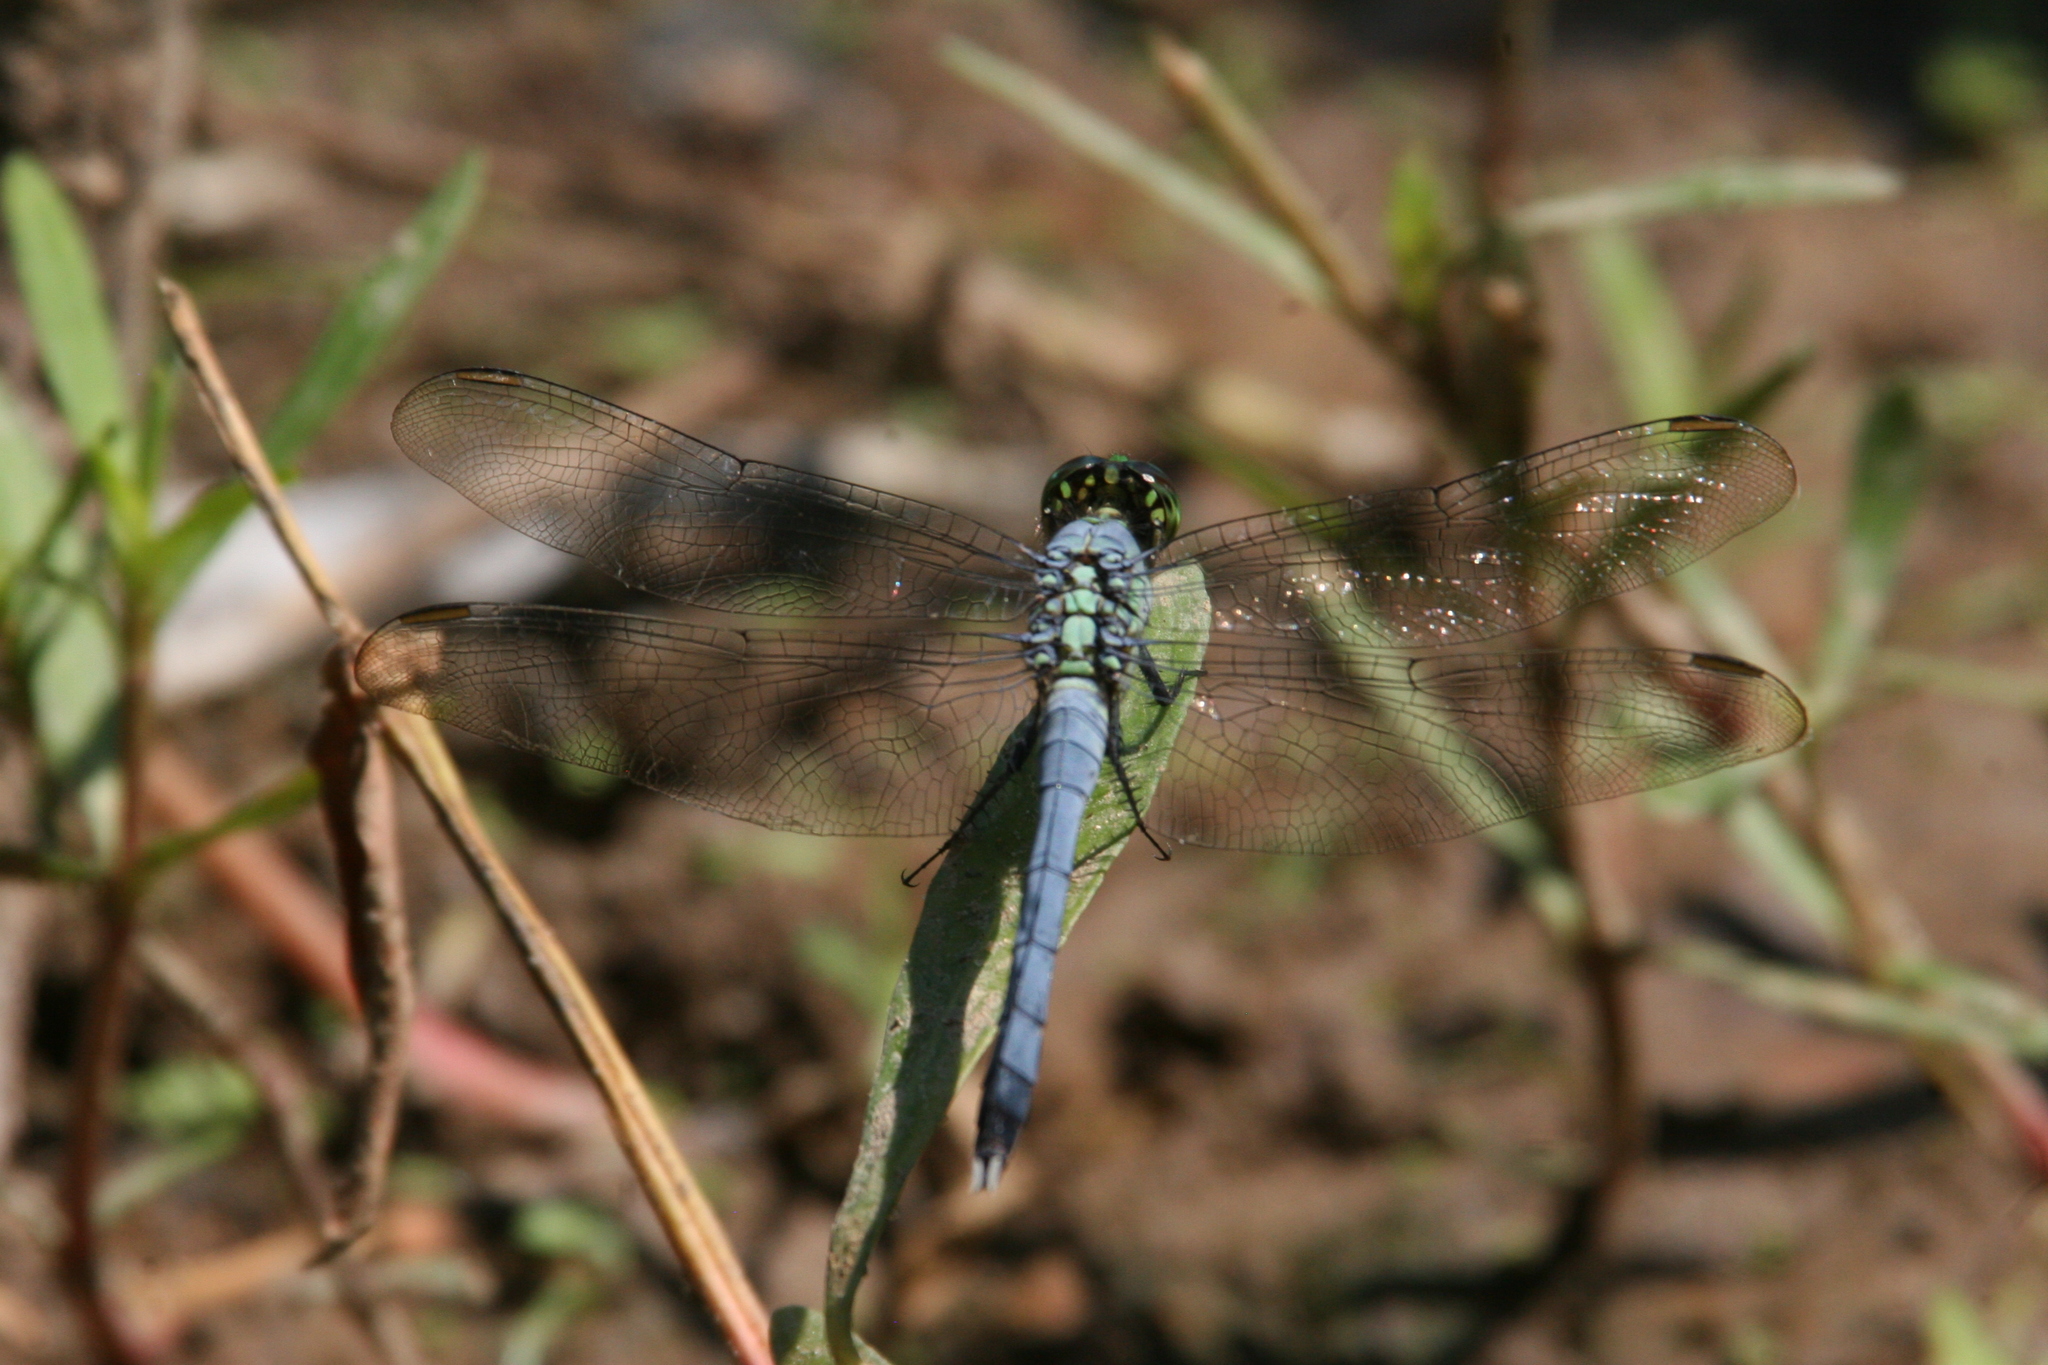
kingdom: Animalia
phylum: Arthropoda
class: Insecta
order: Odonata
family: Libellulidae
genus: Erythemis
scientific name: Erythemis simplicicollis
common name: Eastern pondhawk
